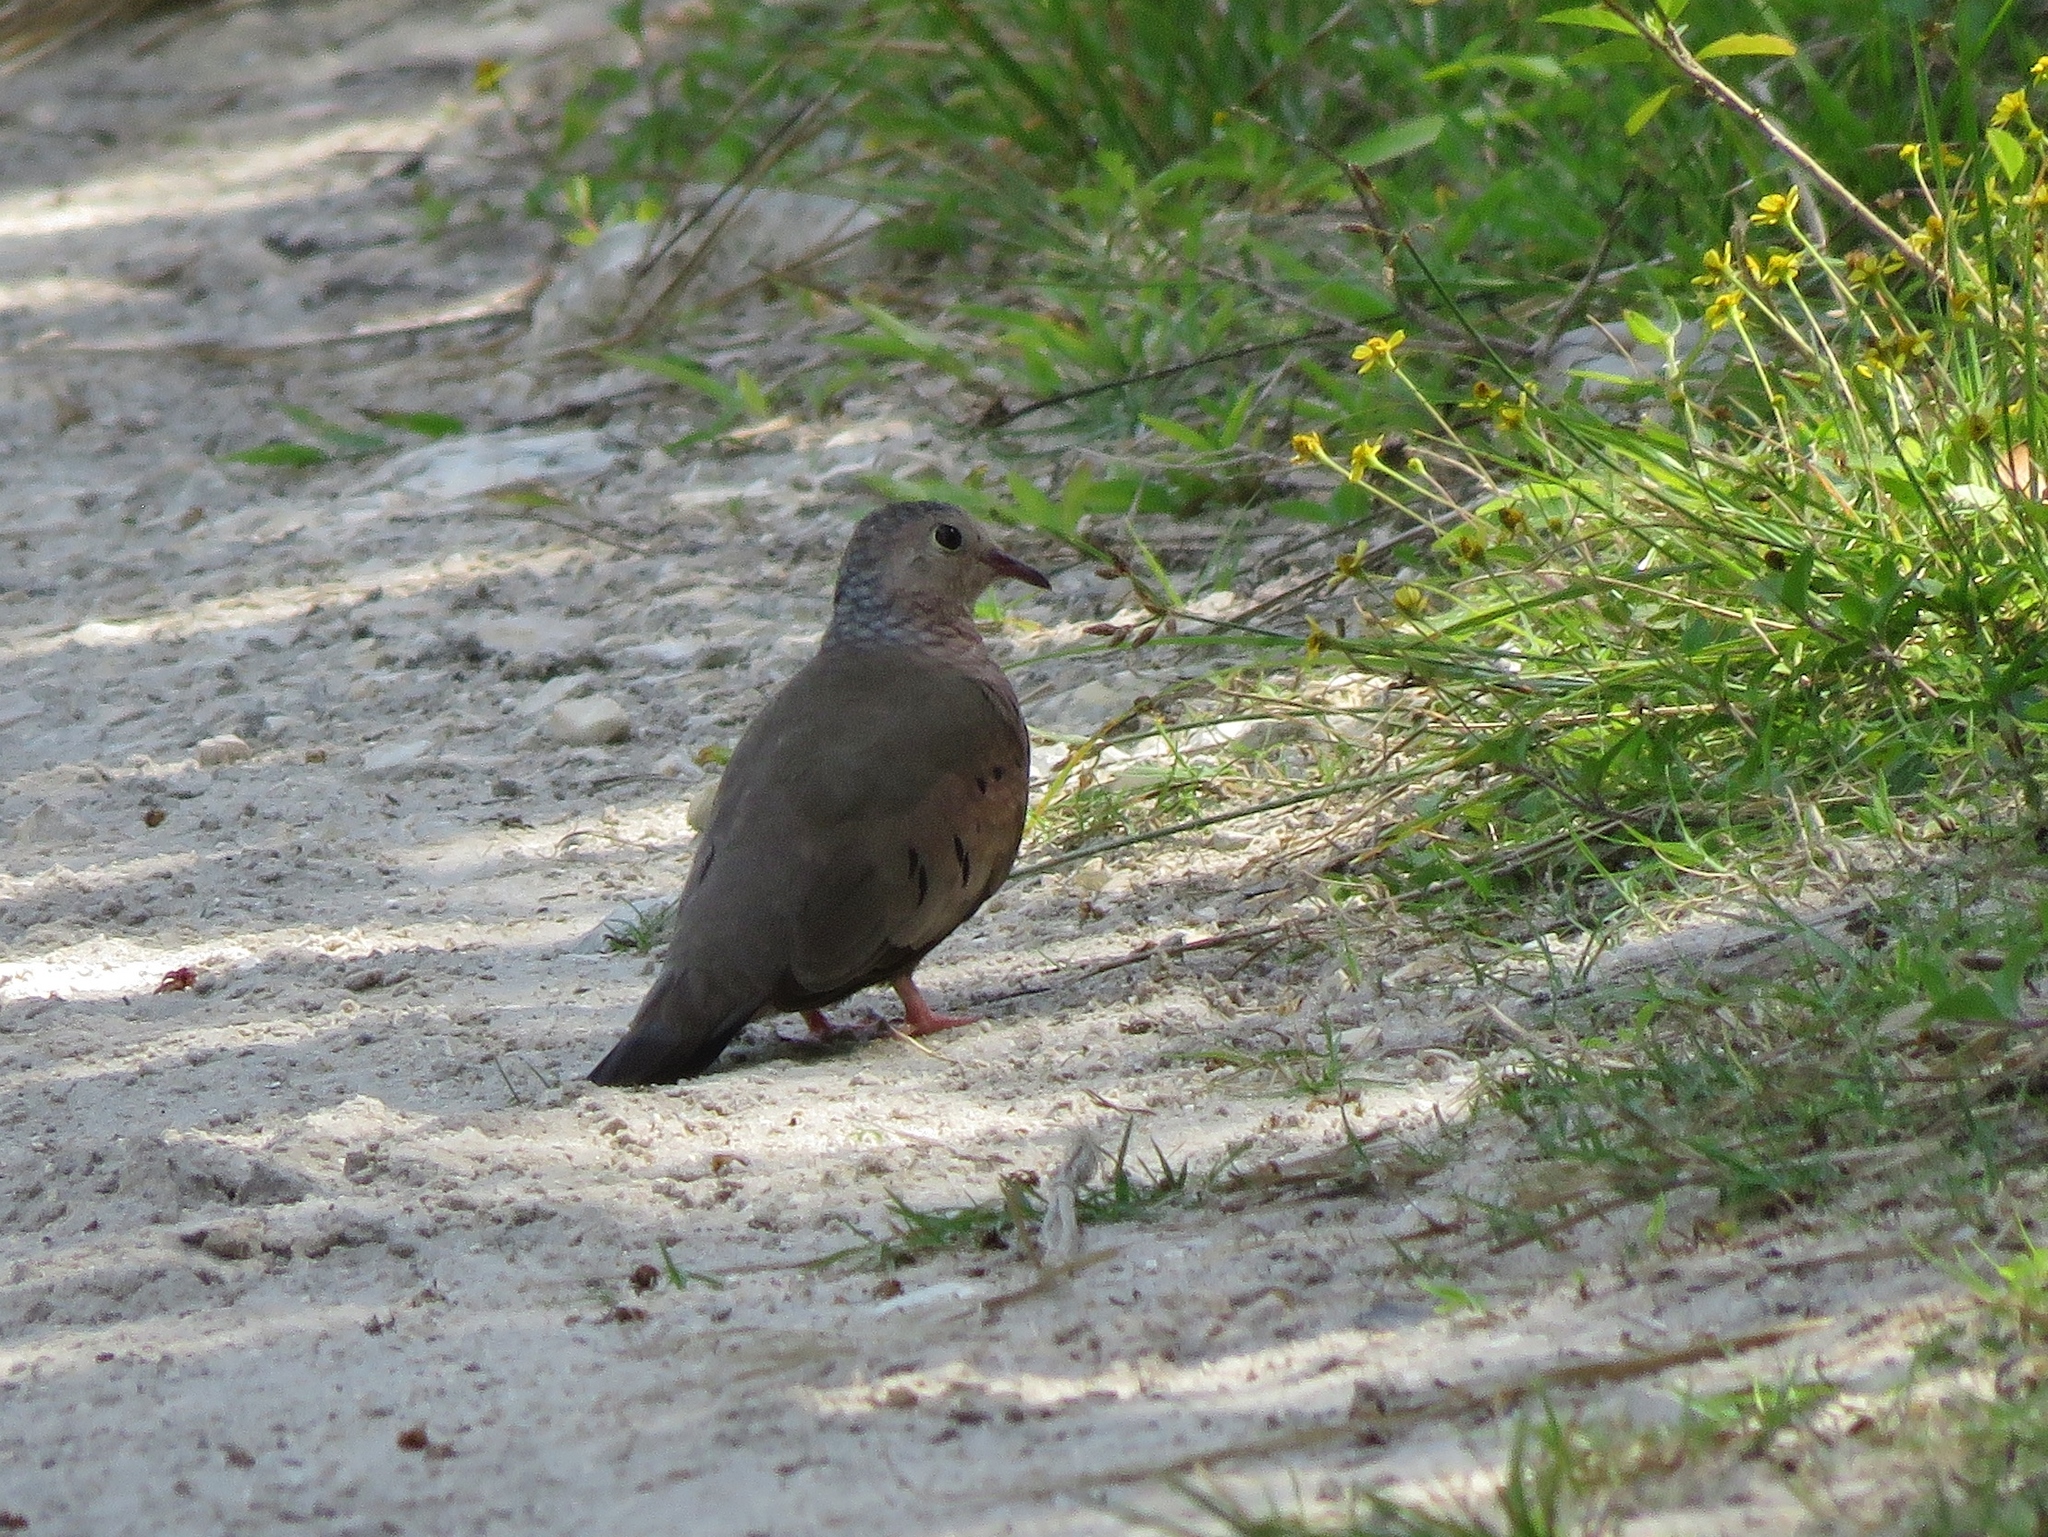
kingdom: Animalia
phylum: Chordata
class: Aves
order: Columbiformes
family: Columbidae
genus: Columbina
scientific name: Columbina passerina
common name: Common ground-dove
